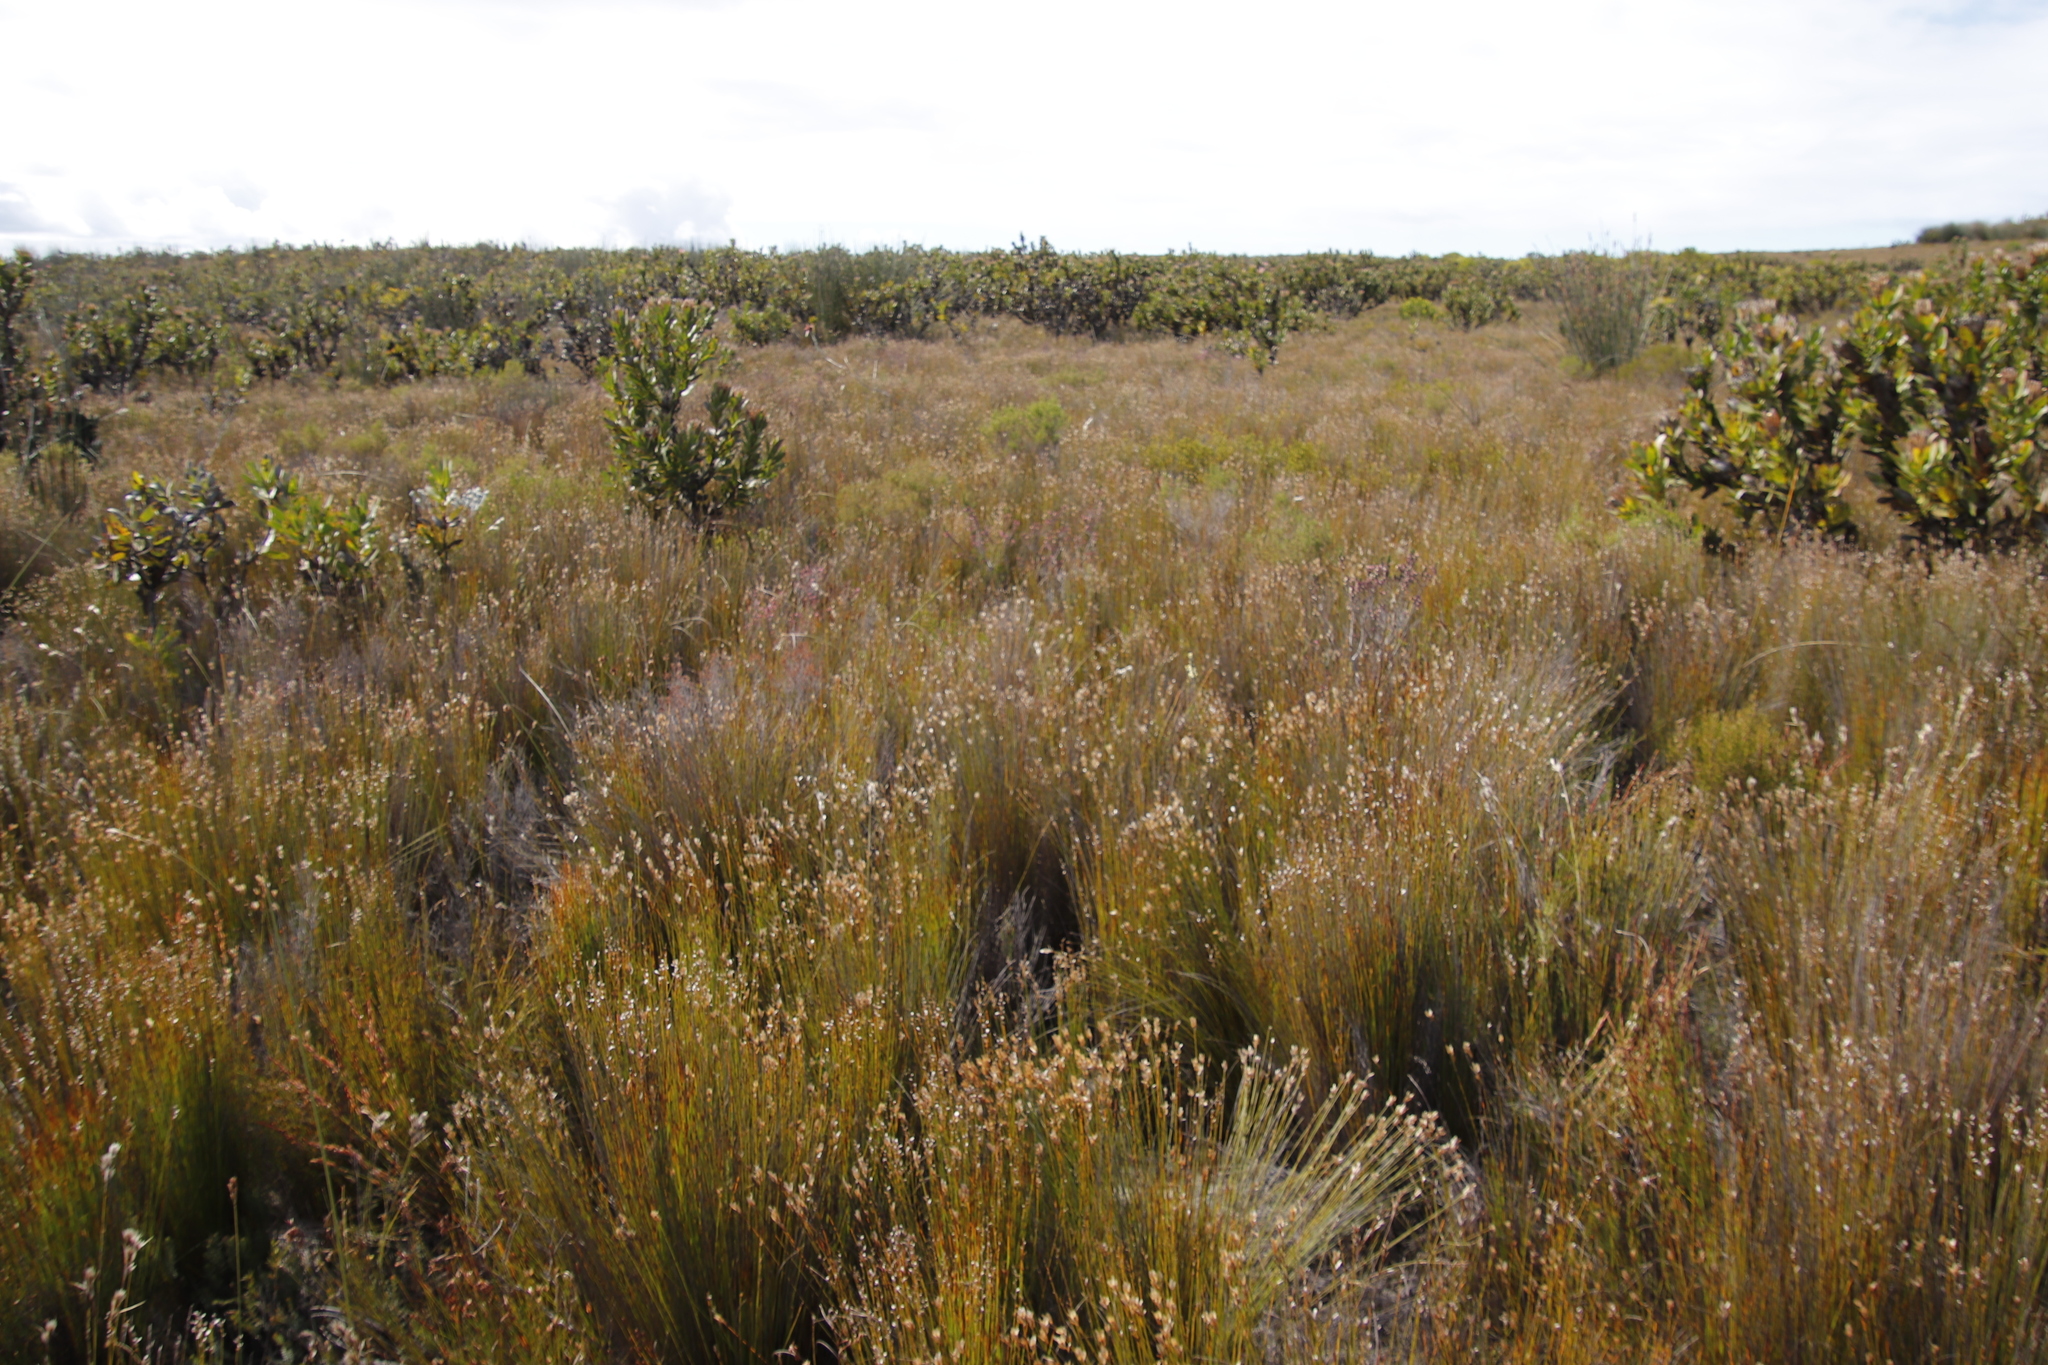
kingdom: Plantae
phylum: Tracheophyta
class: Liliopsida
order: Poales
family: Restionaceae
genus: Elegia
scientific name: Elegia filacea
